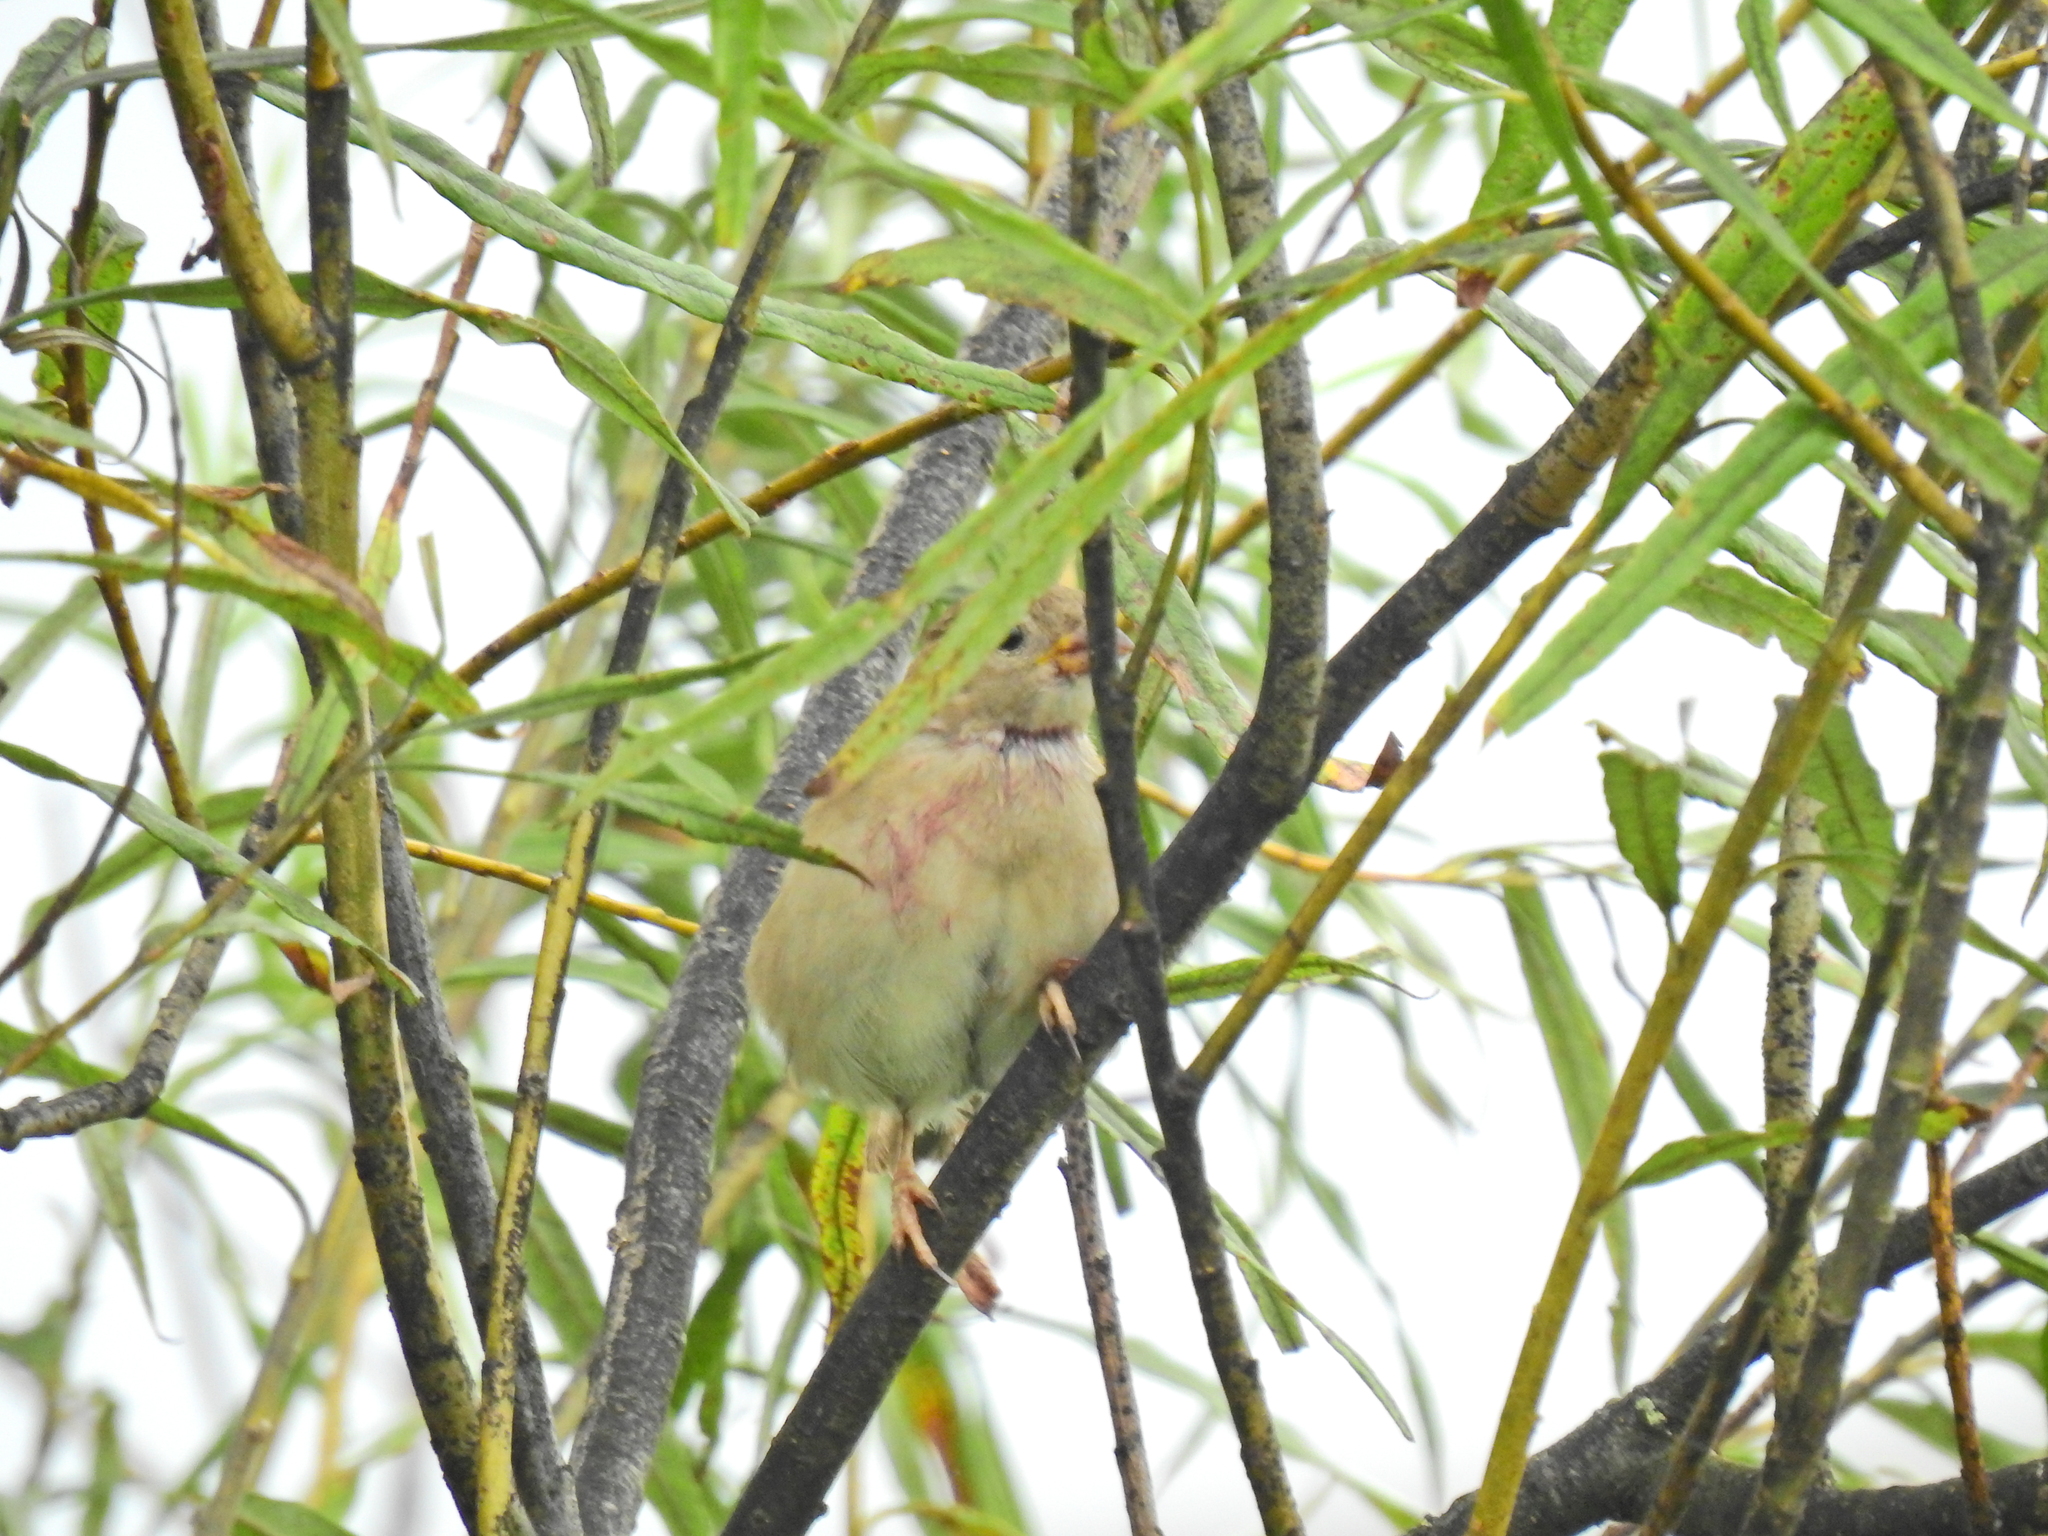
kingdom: Animalia
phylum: Chordata
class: Aves
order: Passeriformes
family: Passeridae
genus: Passer
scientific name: Passer domesticus
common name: House sparrow
